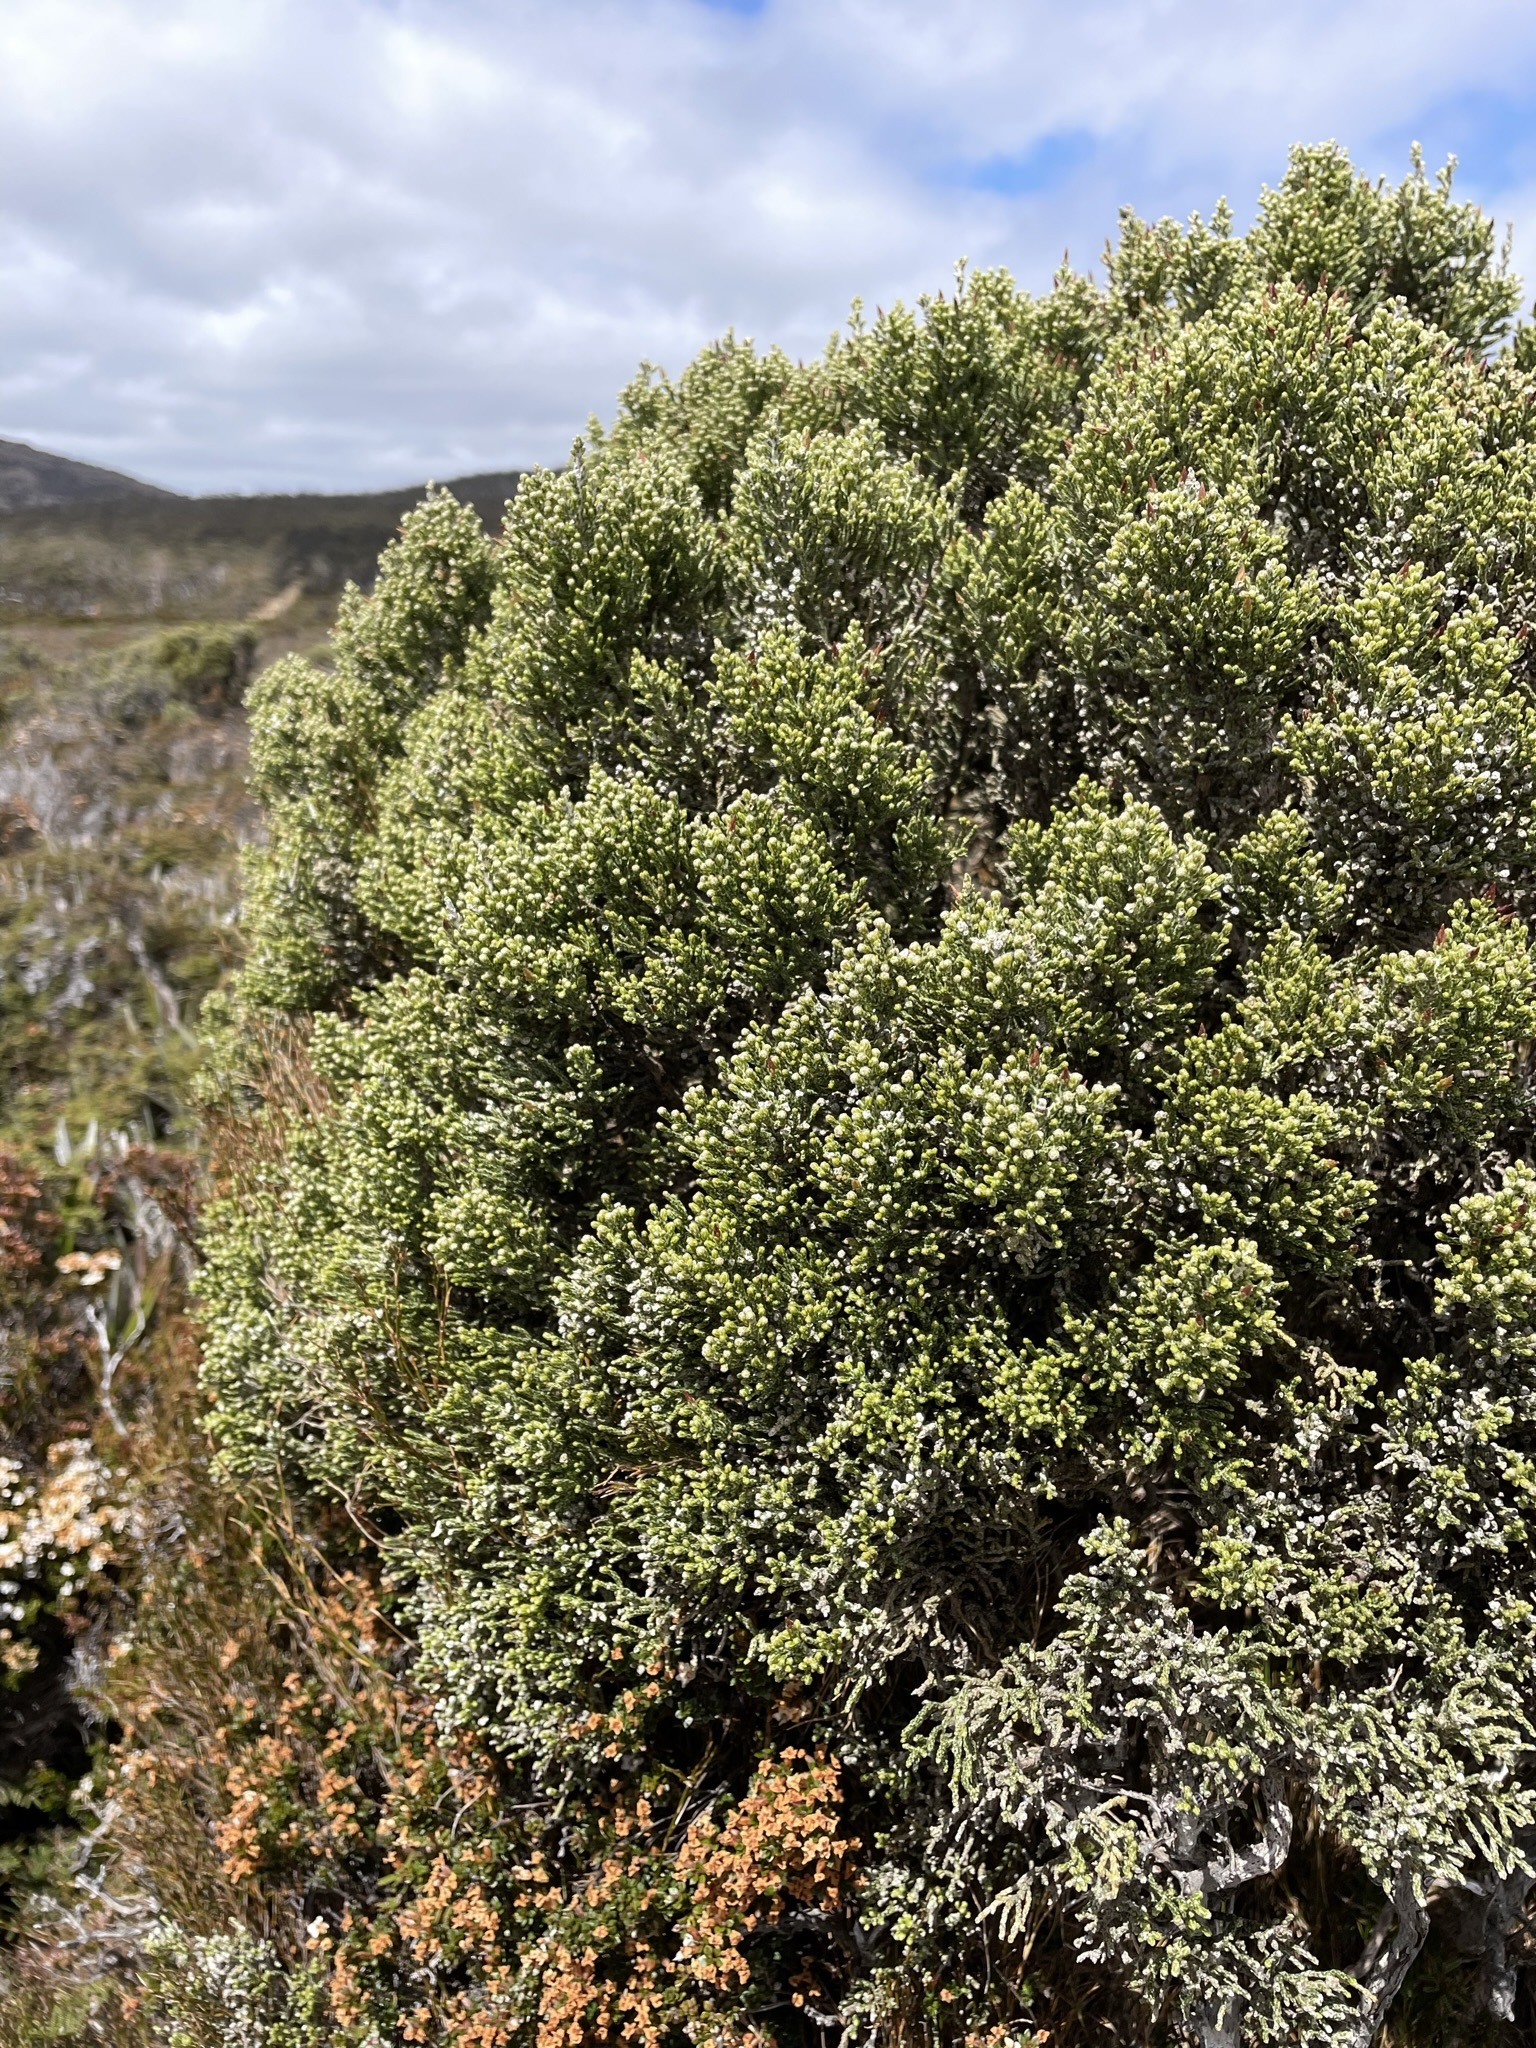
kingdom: Plantae
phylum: Tracheophyta
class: Magnoliopsida
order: Asterales
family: Asteraceae
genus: Ozothamnus
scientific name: Ozothamnus hookeri
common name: Kerosene-bush
